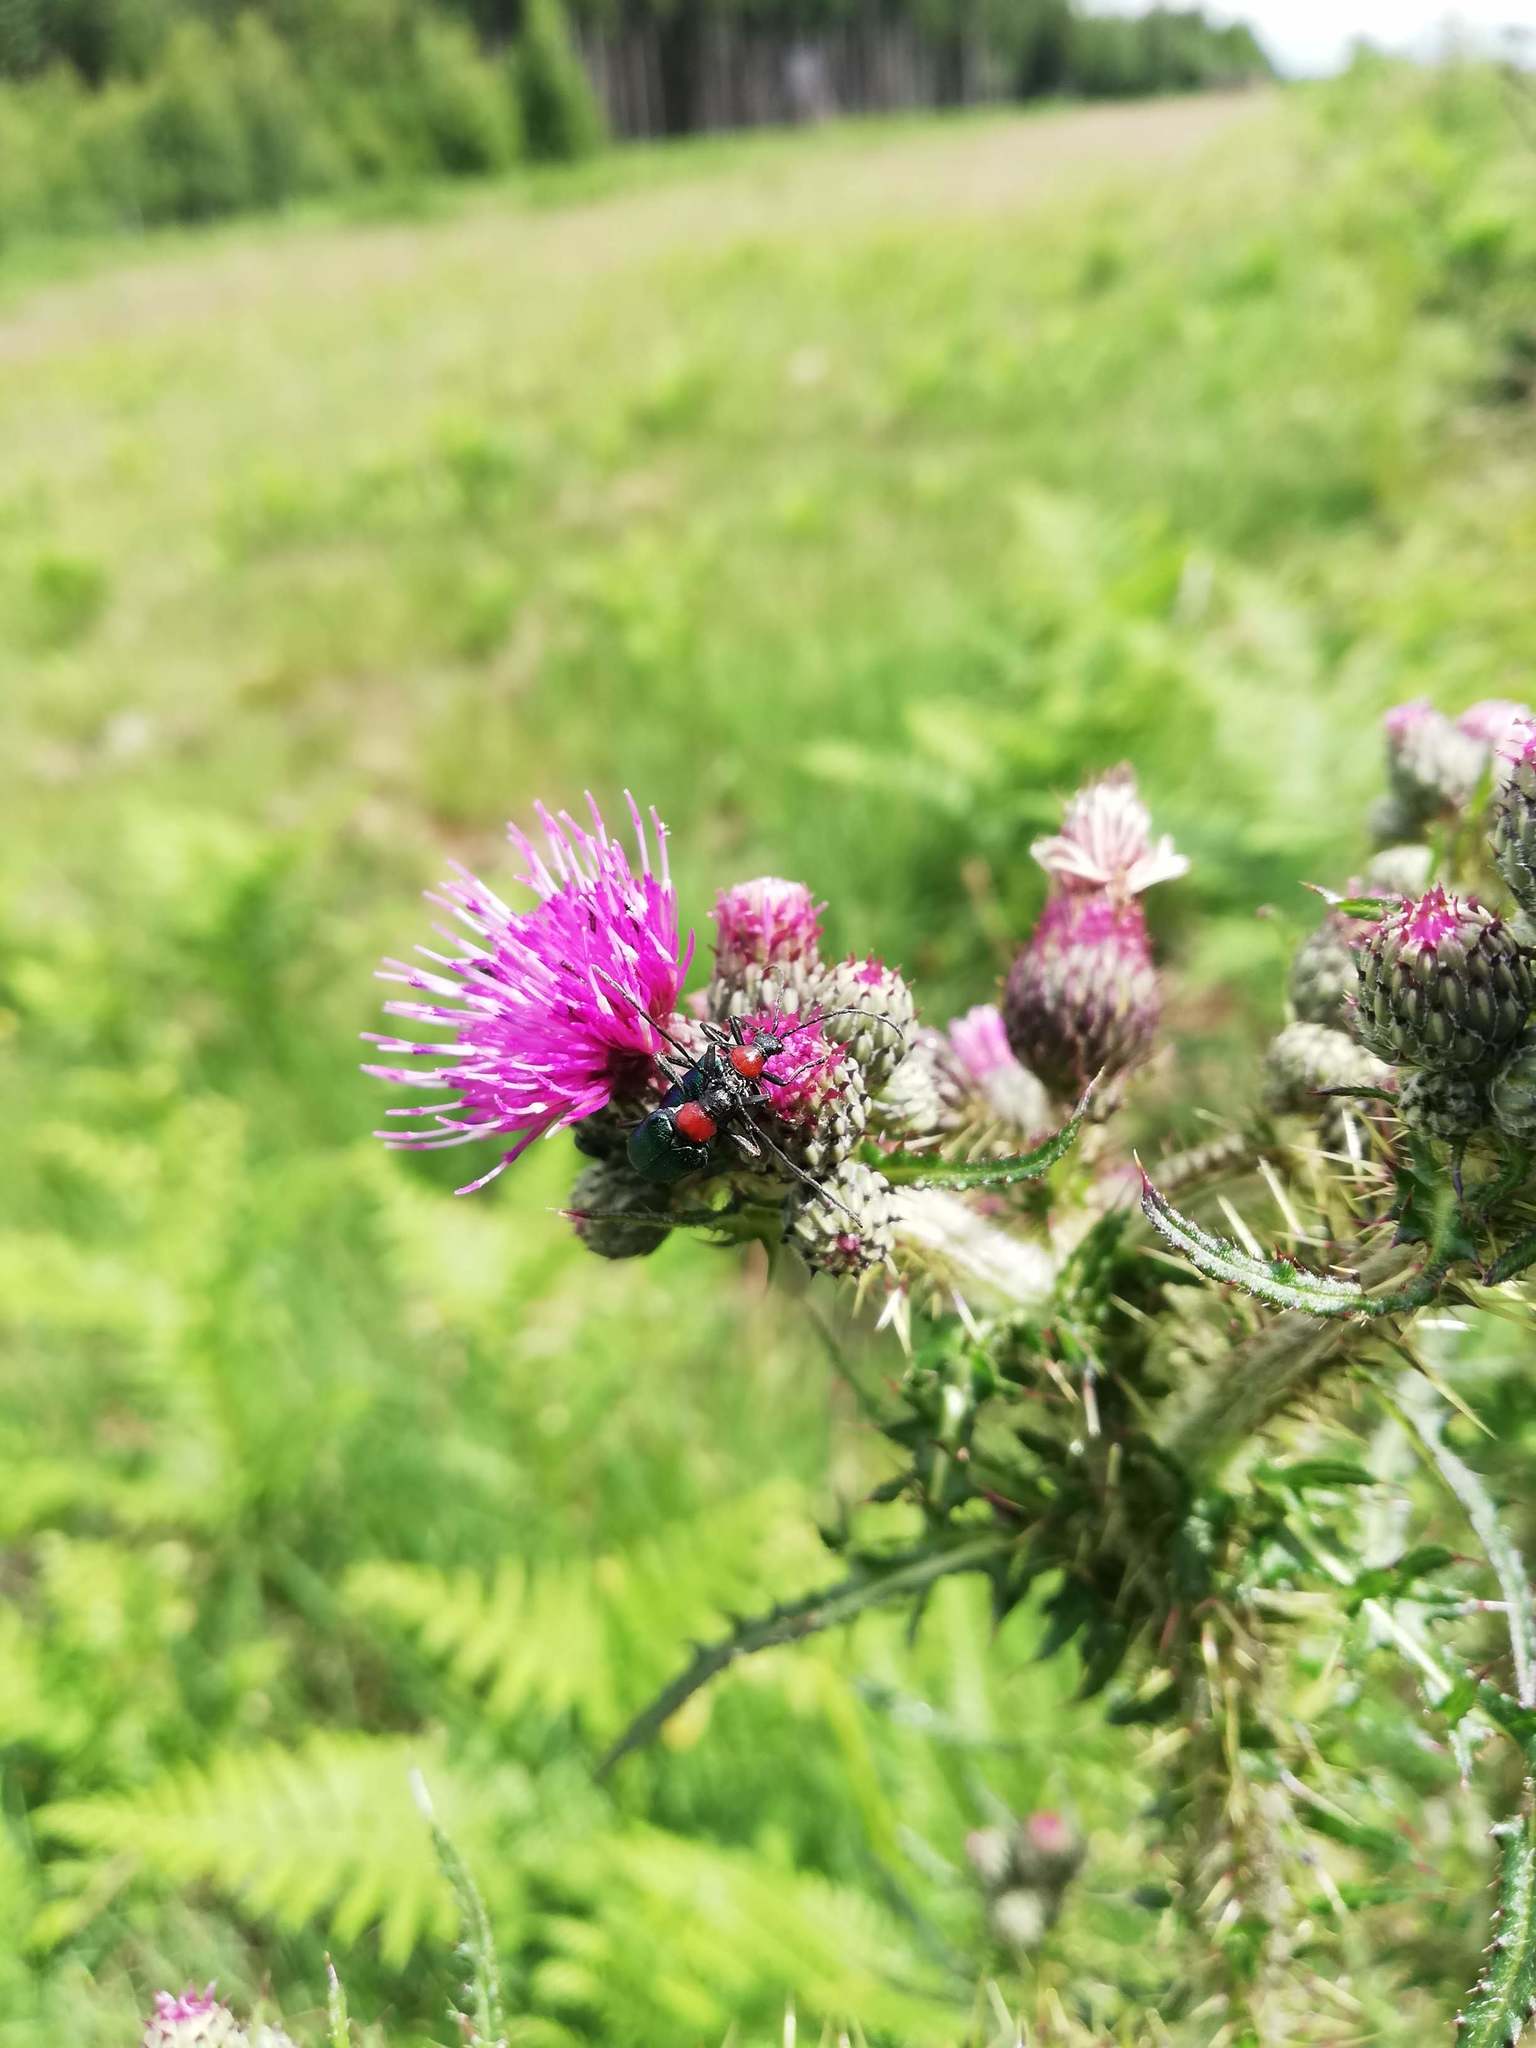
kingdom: Animalia
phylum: Arthropoda
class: Insecta
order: Coleoptera
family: Cerambycidae
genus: Gaurotes
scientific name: Gaurotes virginea
